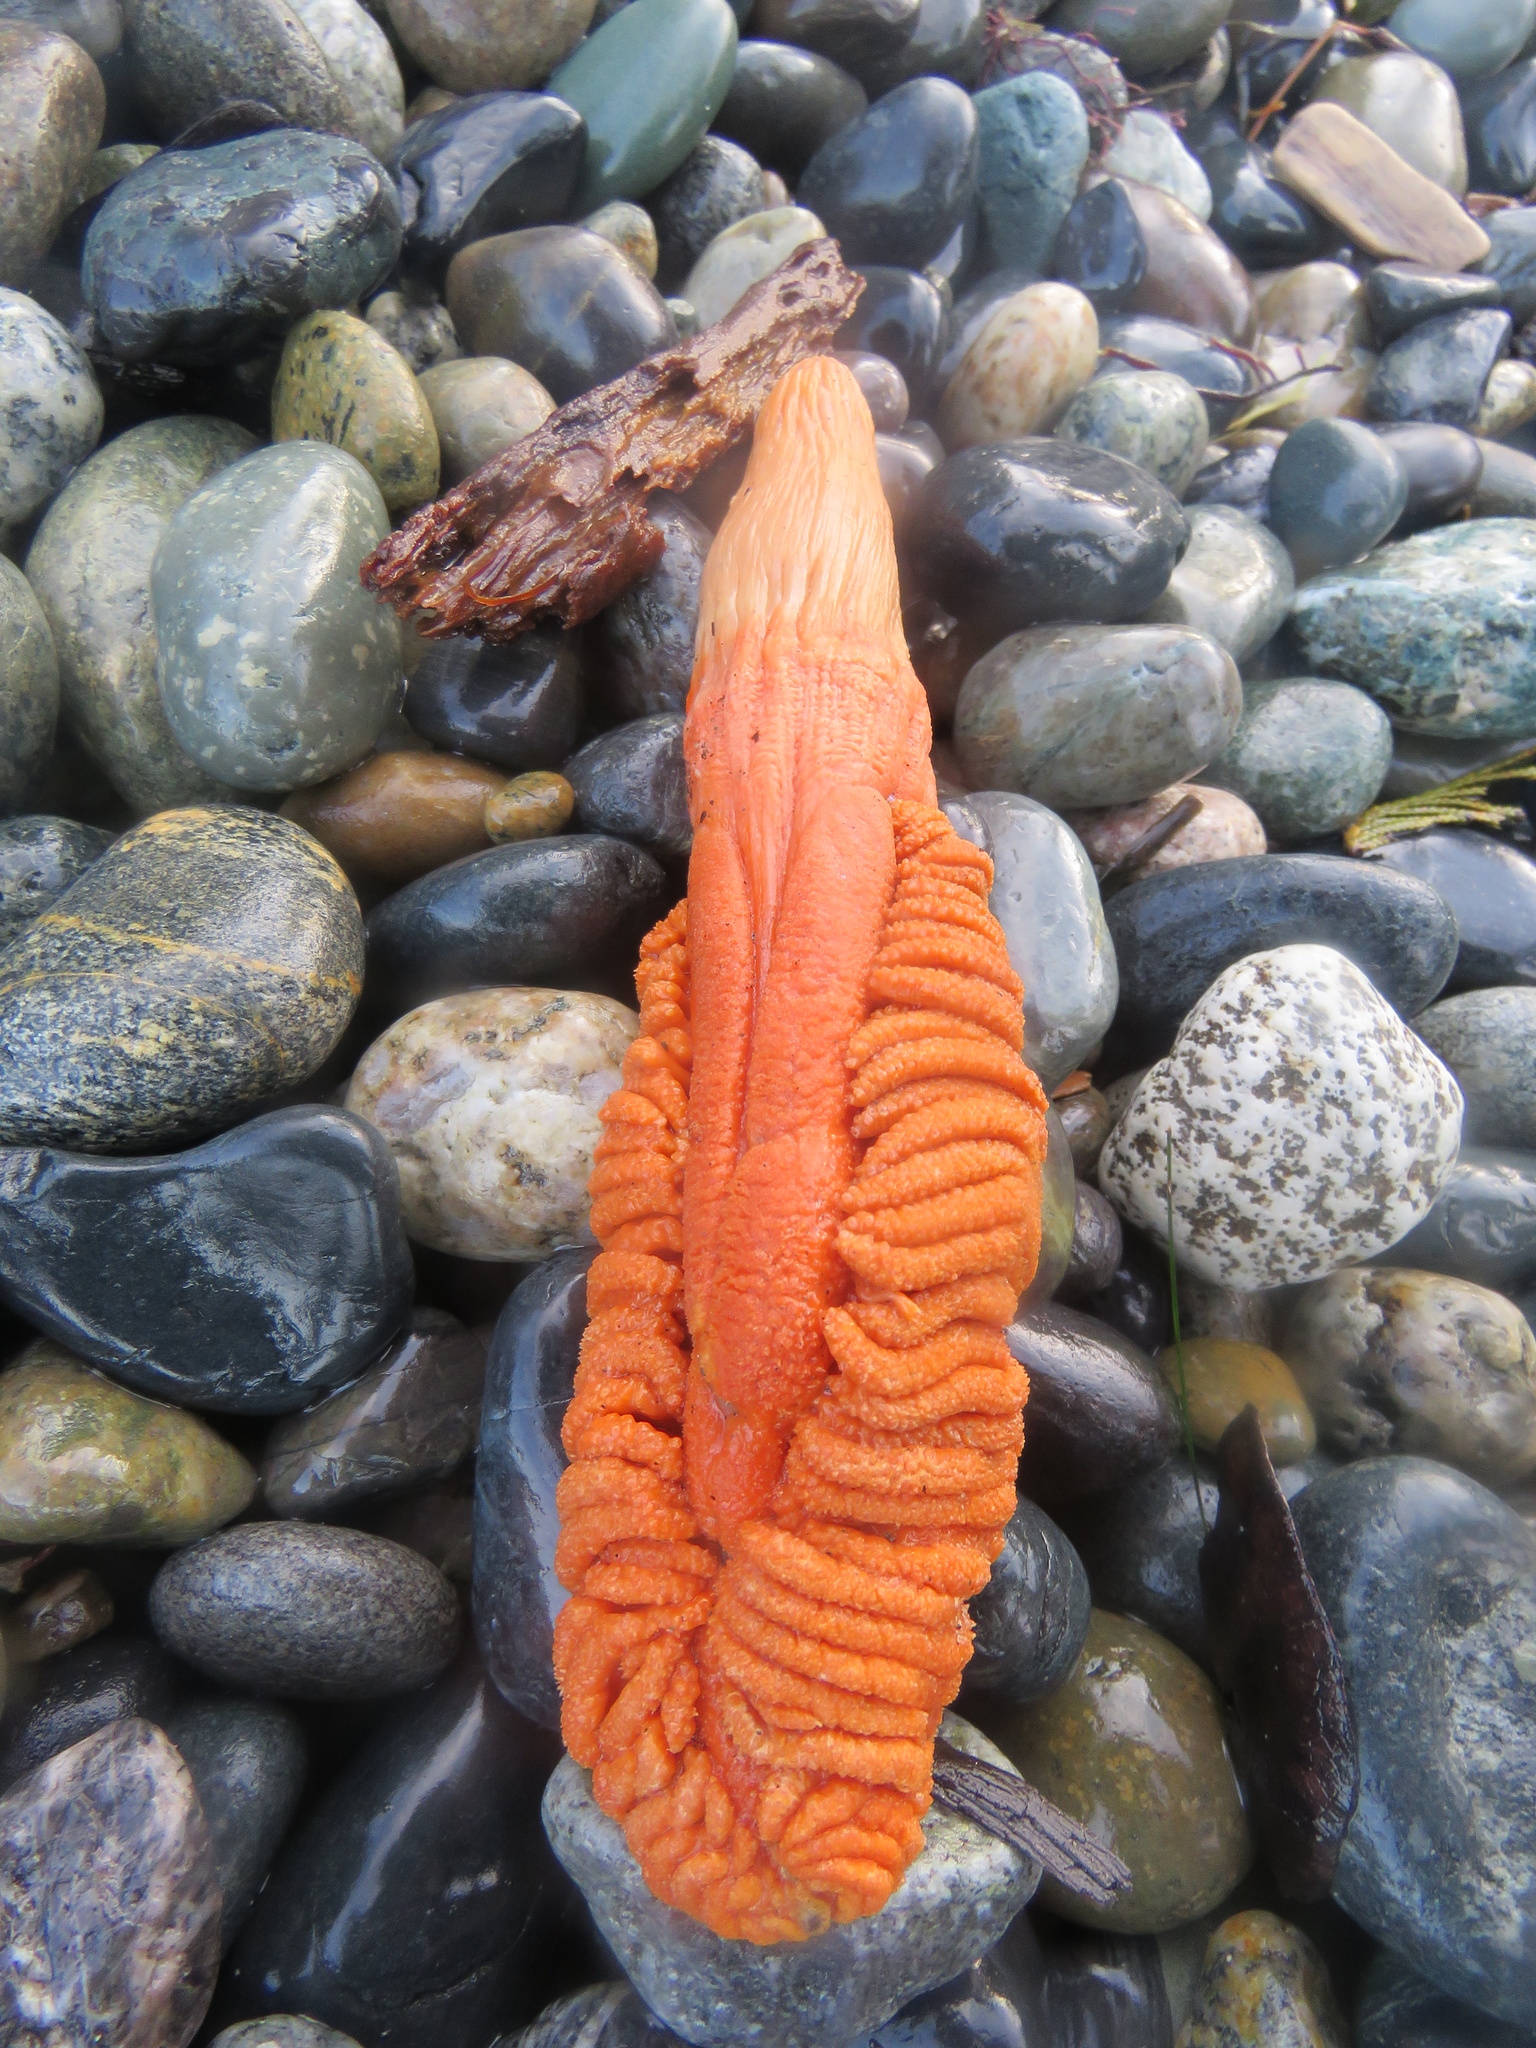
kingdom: Animalia
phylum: Cnidaria
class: Anthozoa
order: Scleralcyonacea
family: Pennatulidae
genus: Ptilosarcus
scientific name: Ptilosarcus gurneyi
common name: Gurney's sea pen
